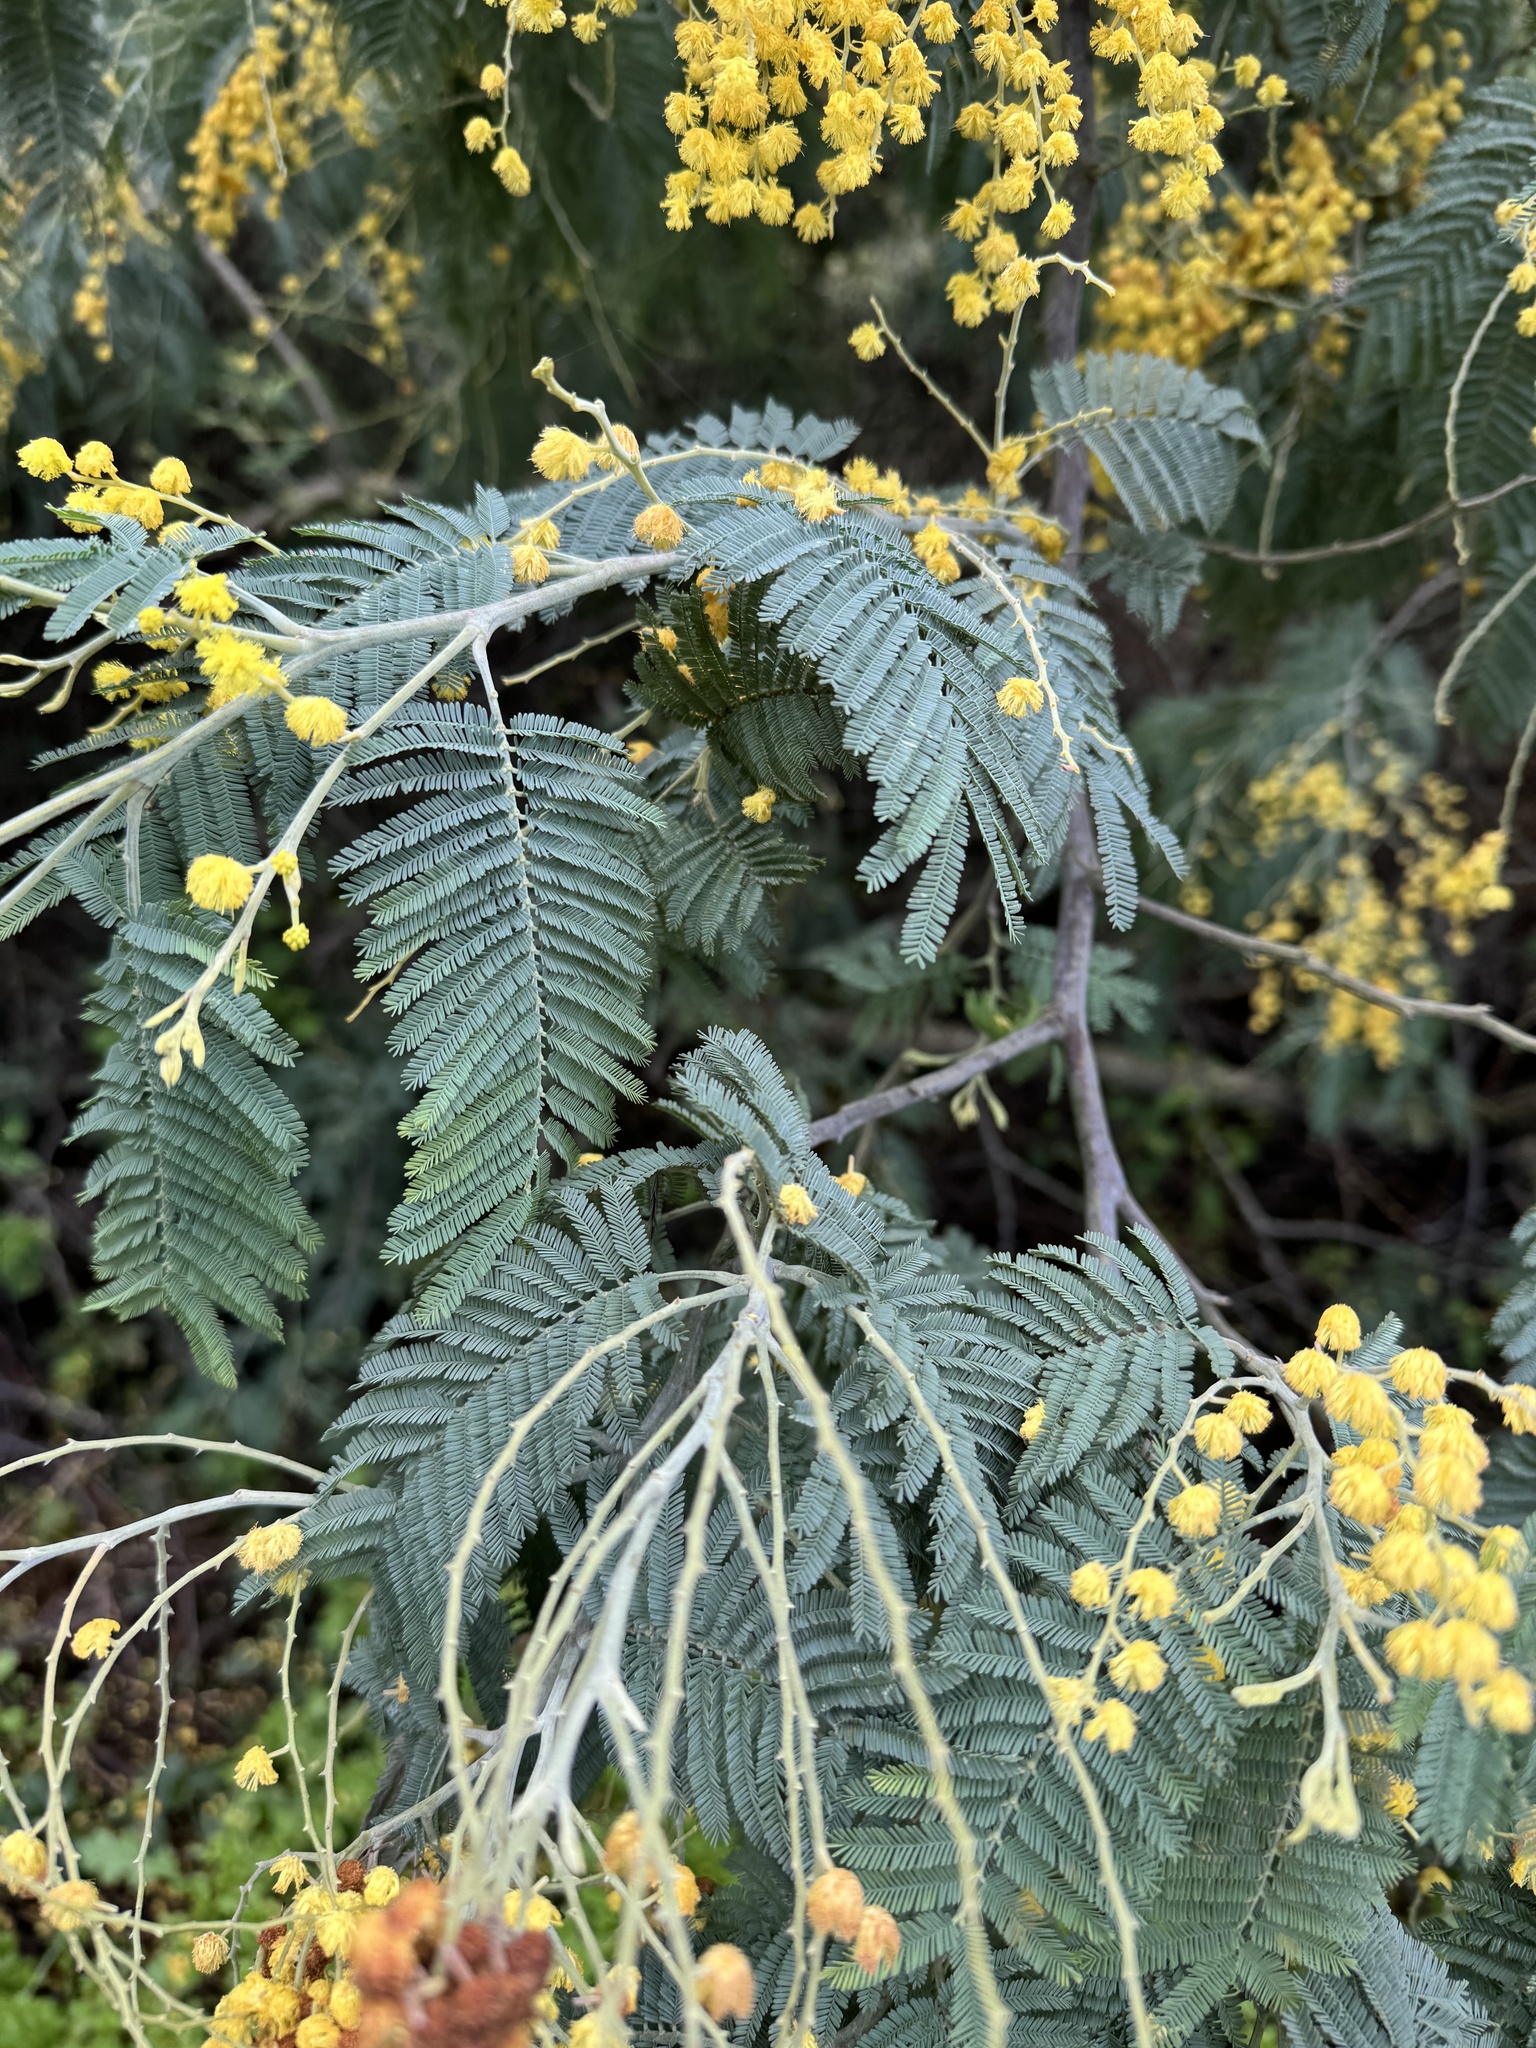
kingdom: Plantae
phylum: Tracheophyta
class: Magnoliopsida
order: Fabales
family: Fabaceae
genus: Acacia
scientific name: Acacia dealbata
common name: Silver wattle
